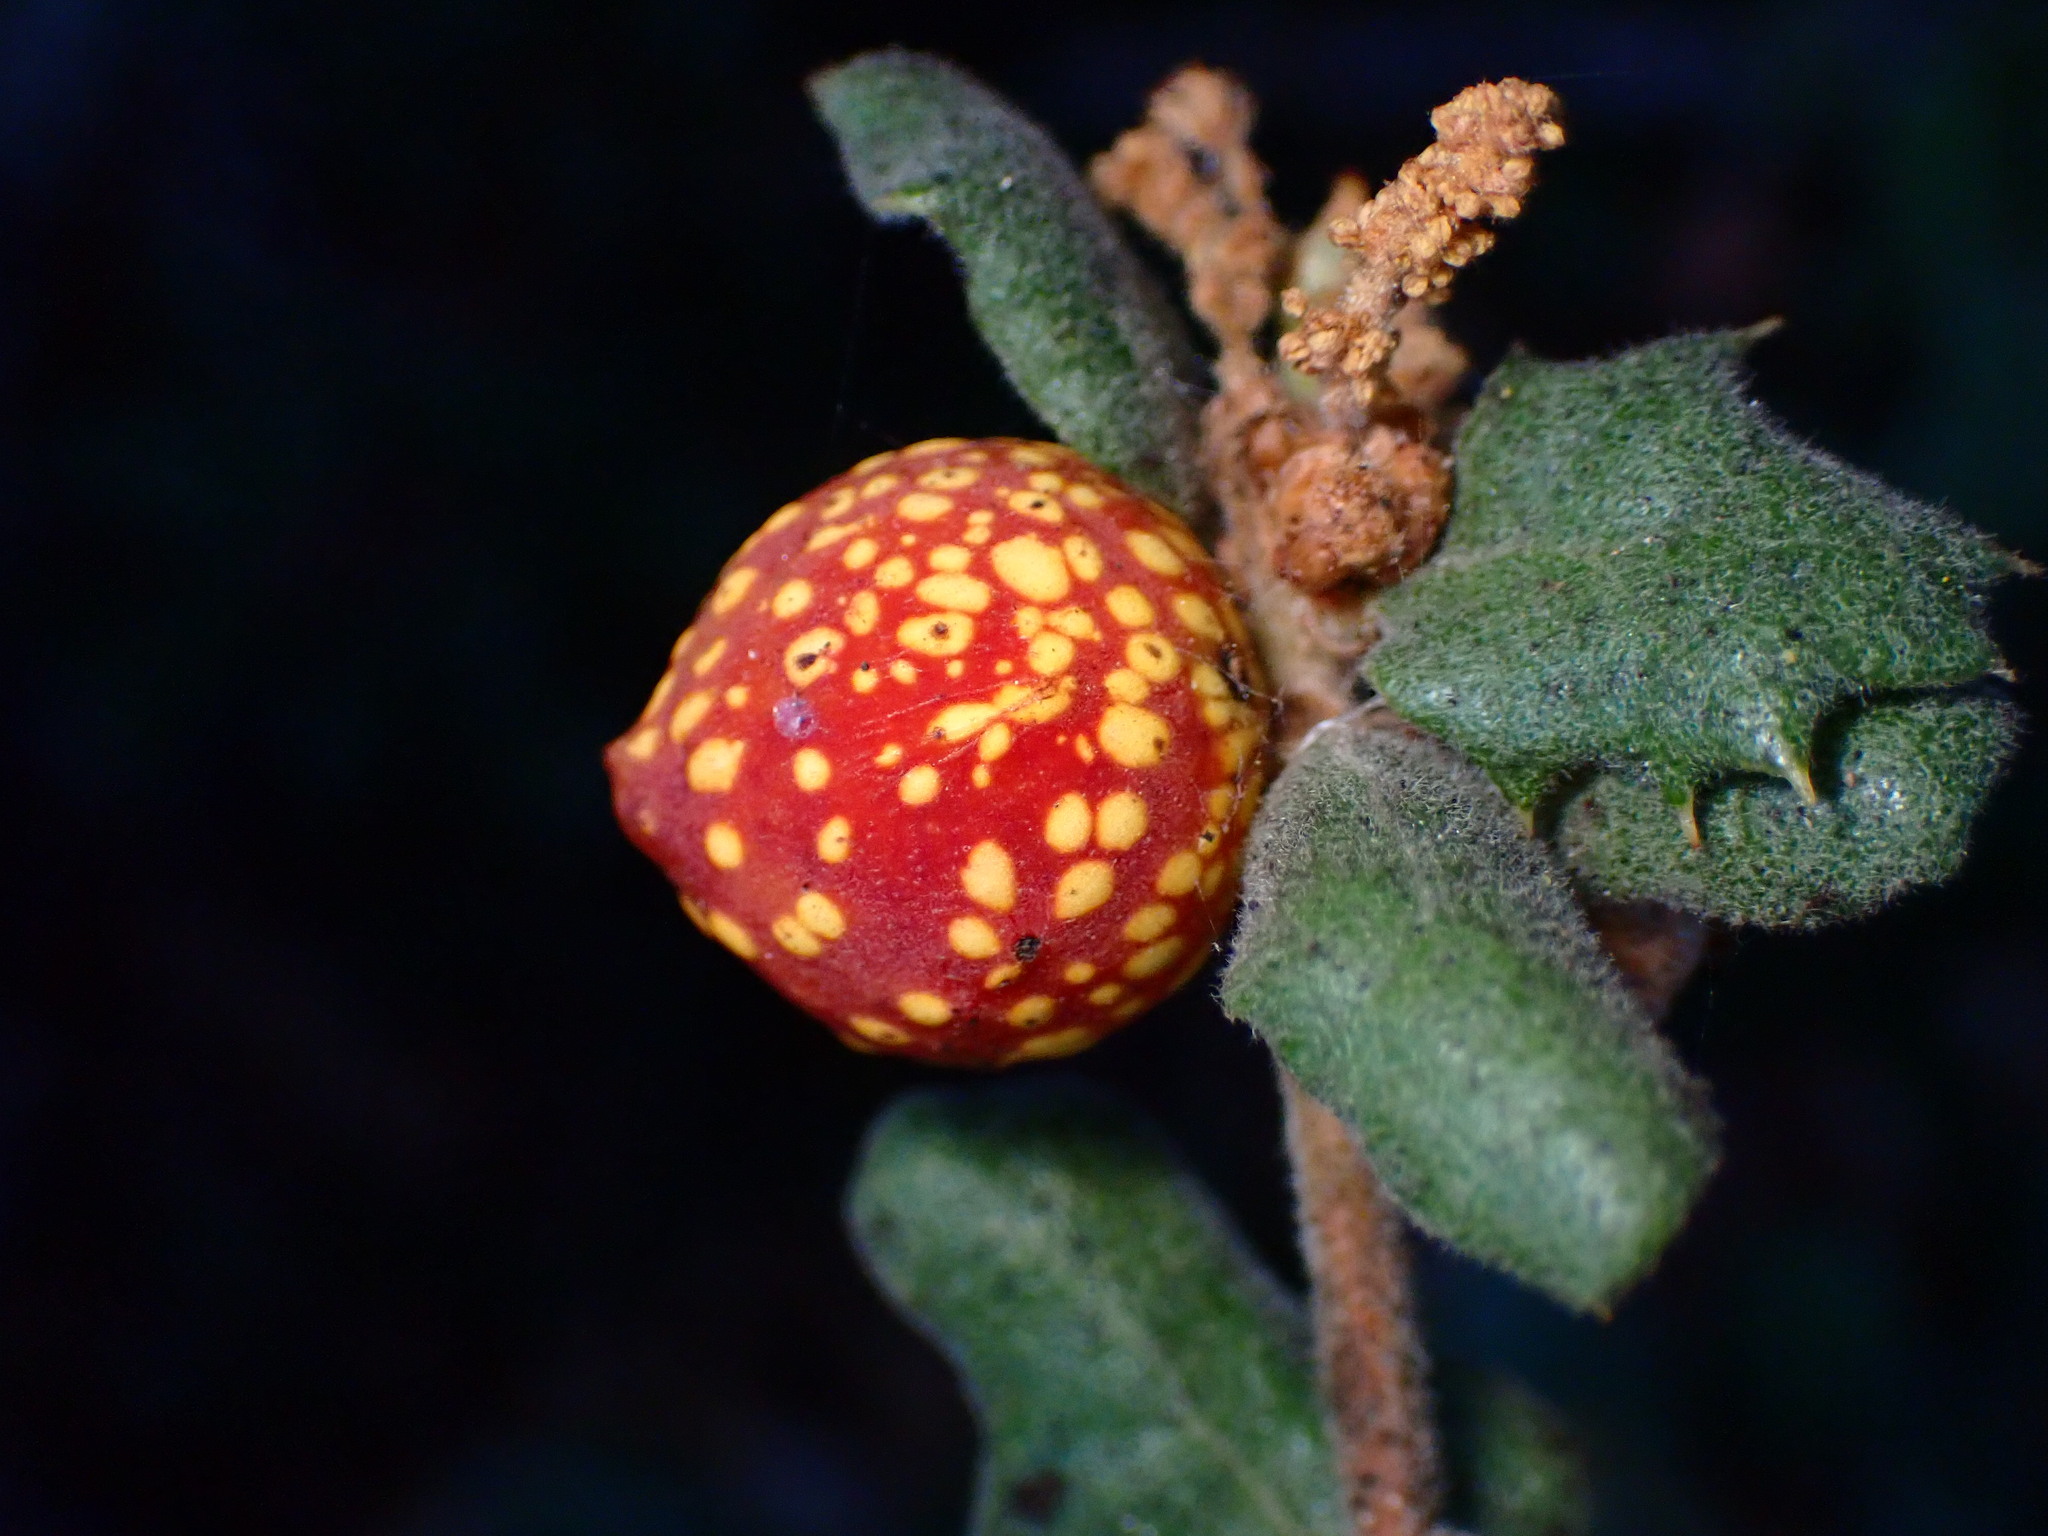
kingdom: Animalia
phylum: Arthropoda
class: Insecta
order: Hymenoptera
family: Cynipidae
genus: Burnettweldia
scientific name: Burnettweldia
